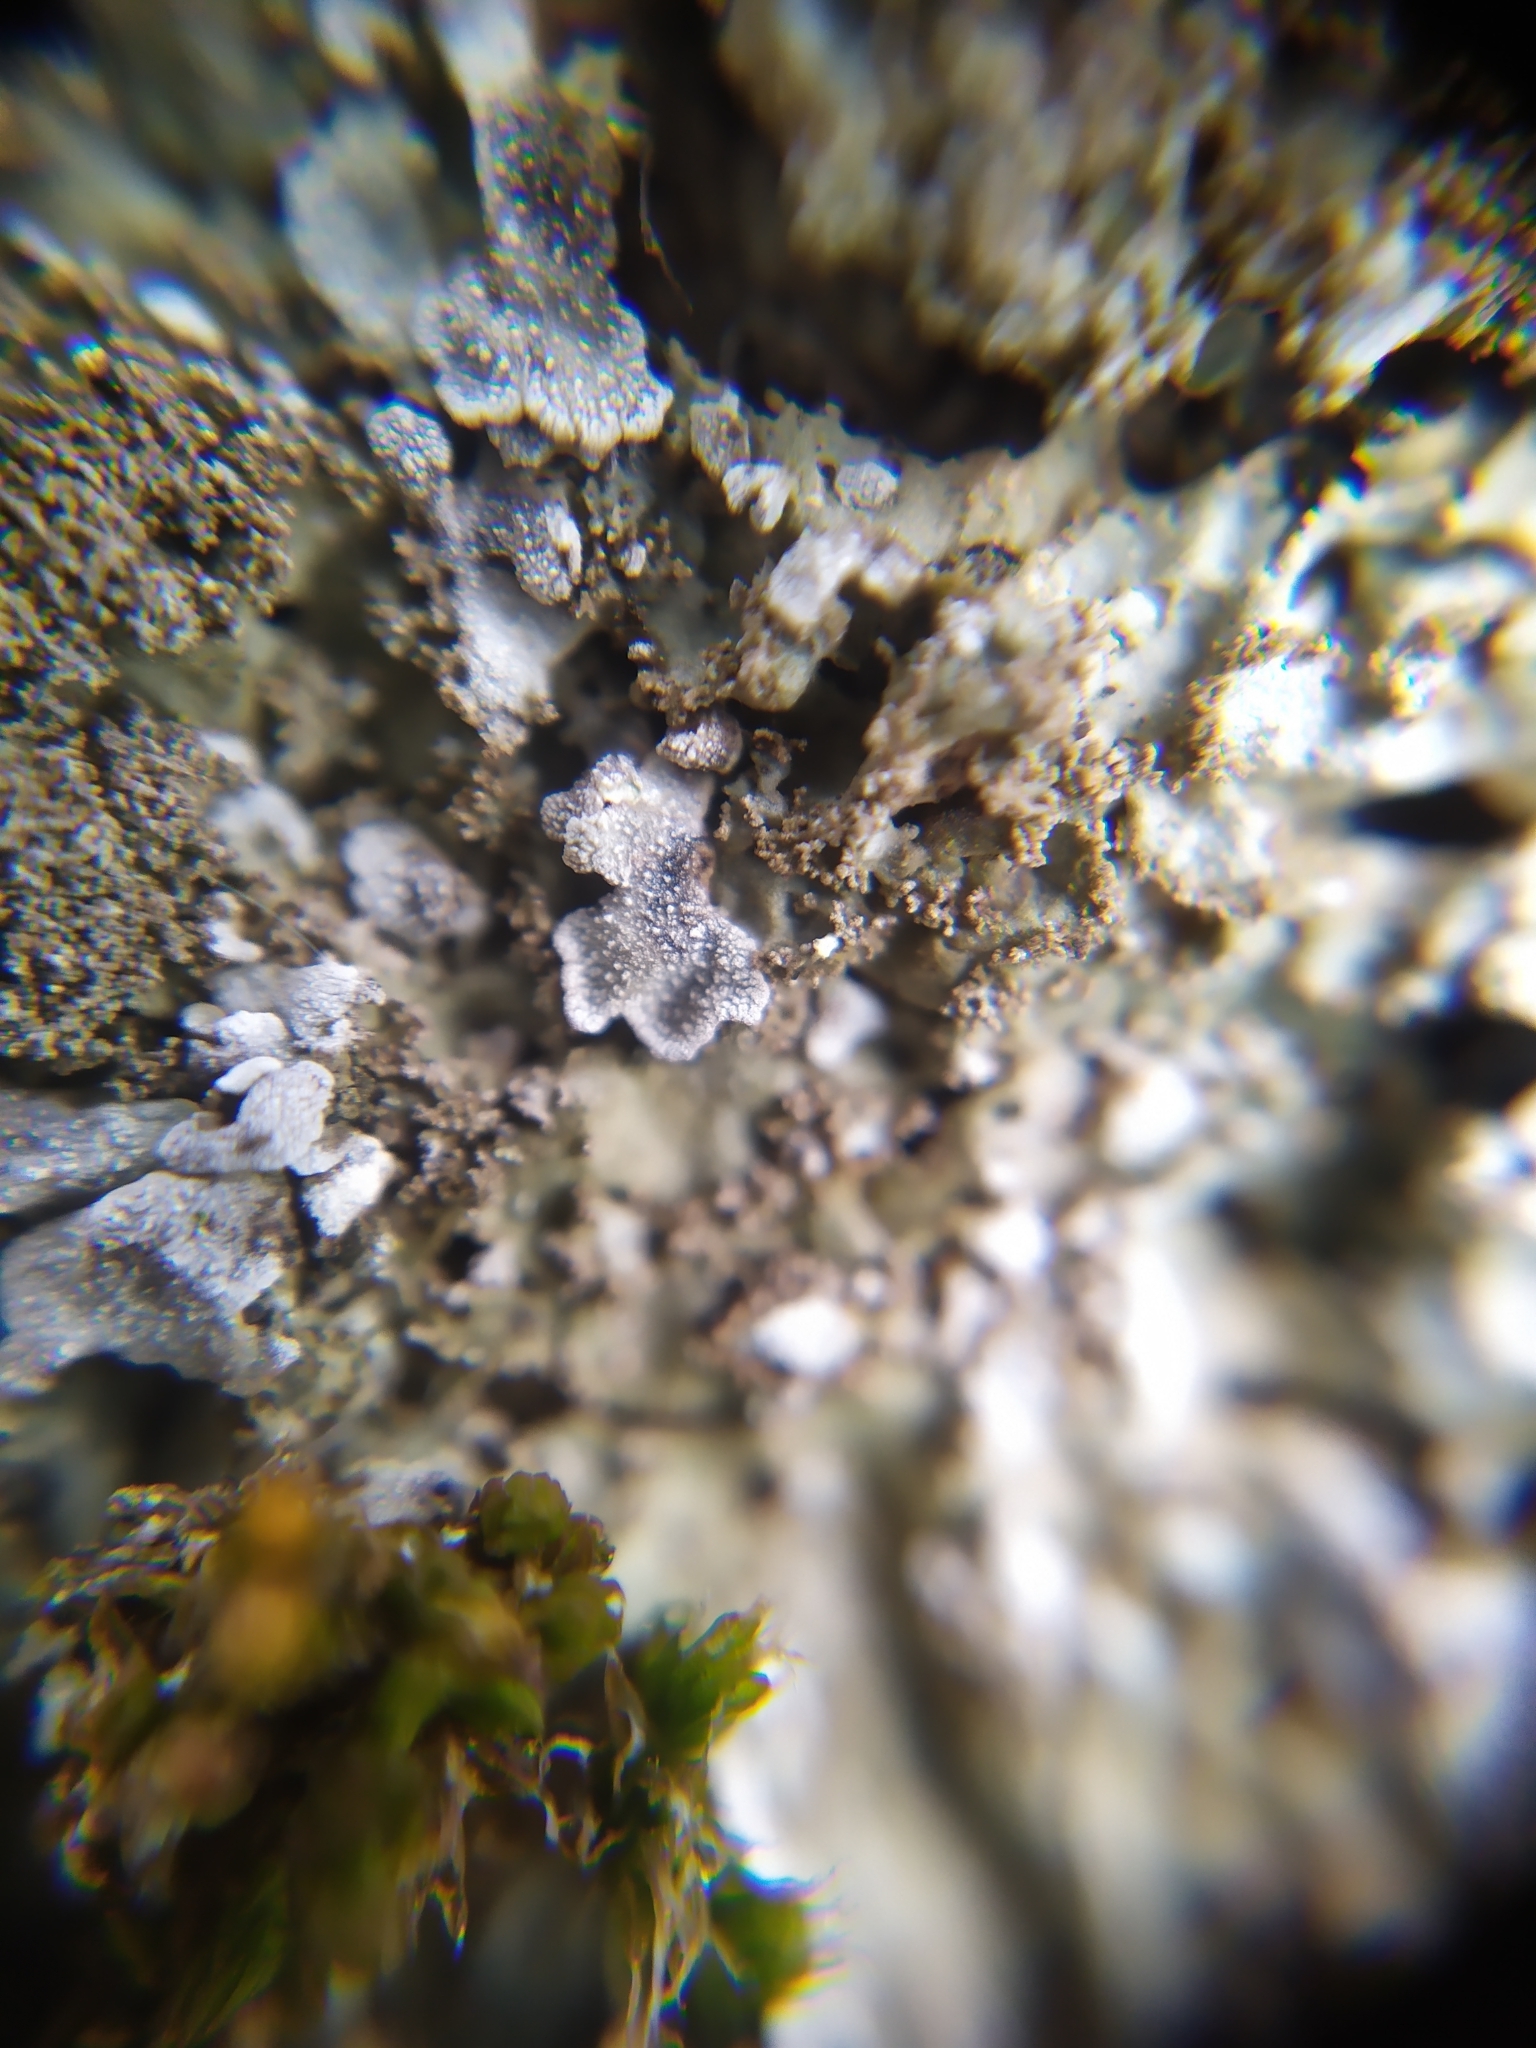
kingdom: Fungi
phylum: Ascomycota
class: Lecanoromycetes
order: Caliciales
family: Physciaceae
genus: Poeltonia
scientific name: Poeltonia grisea
